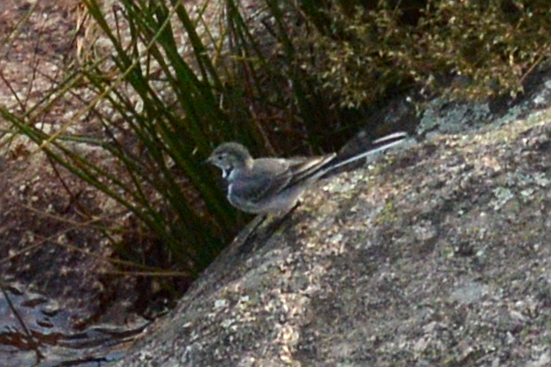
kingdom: Animalia
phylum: Chordata
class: Aves
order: Passeriformes
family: Motacillidae
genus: Motacilla
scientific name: Motacilla alba
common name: White wagtail
